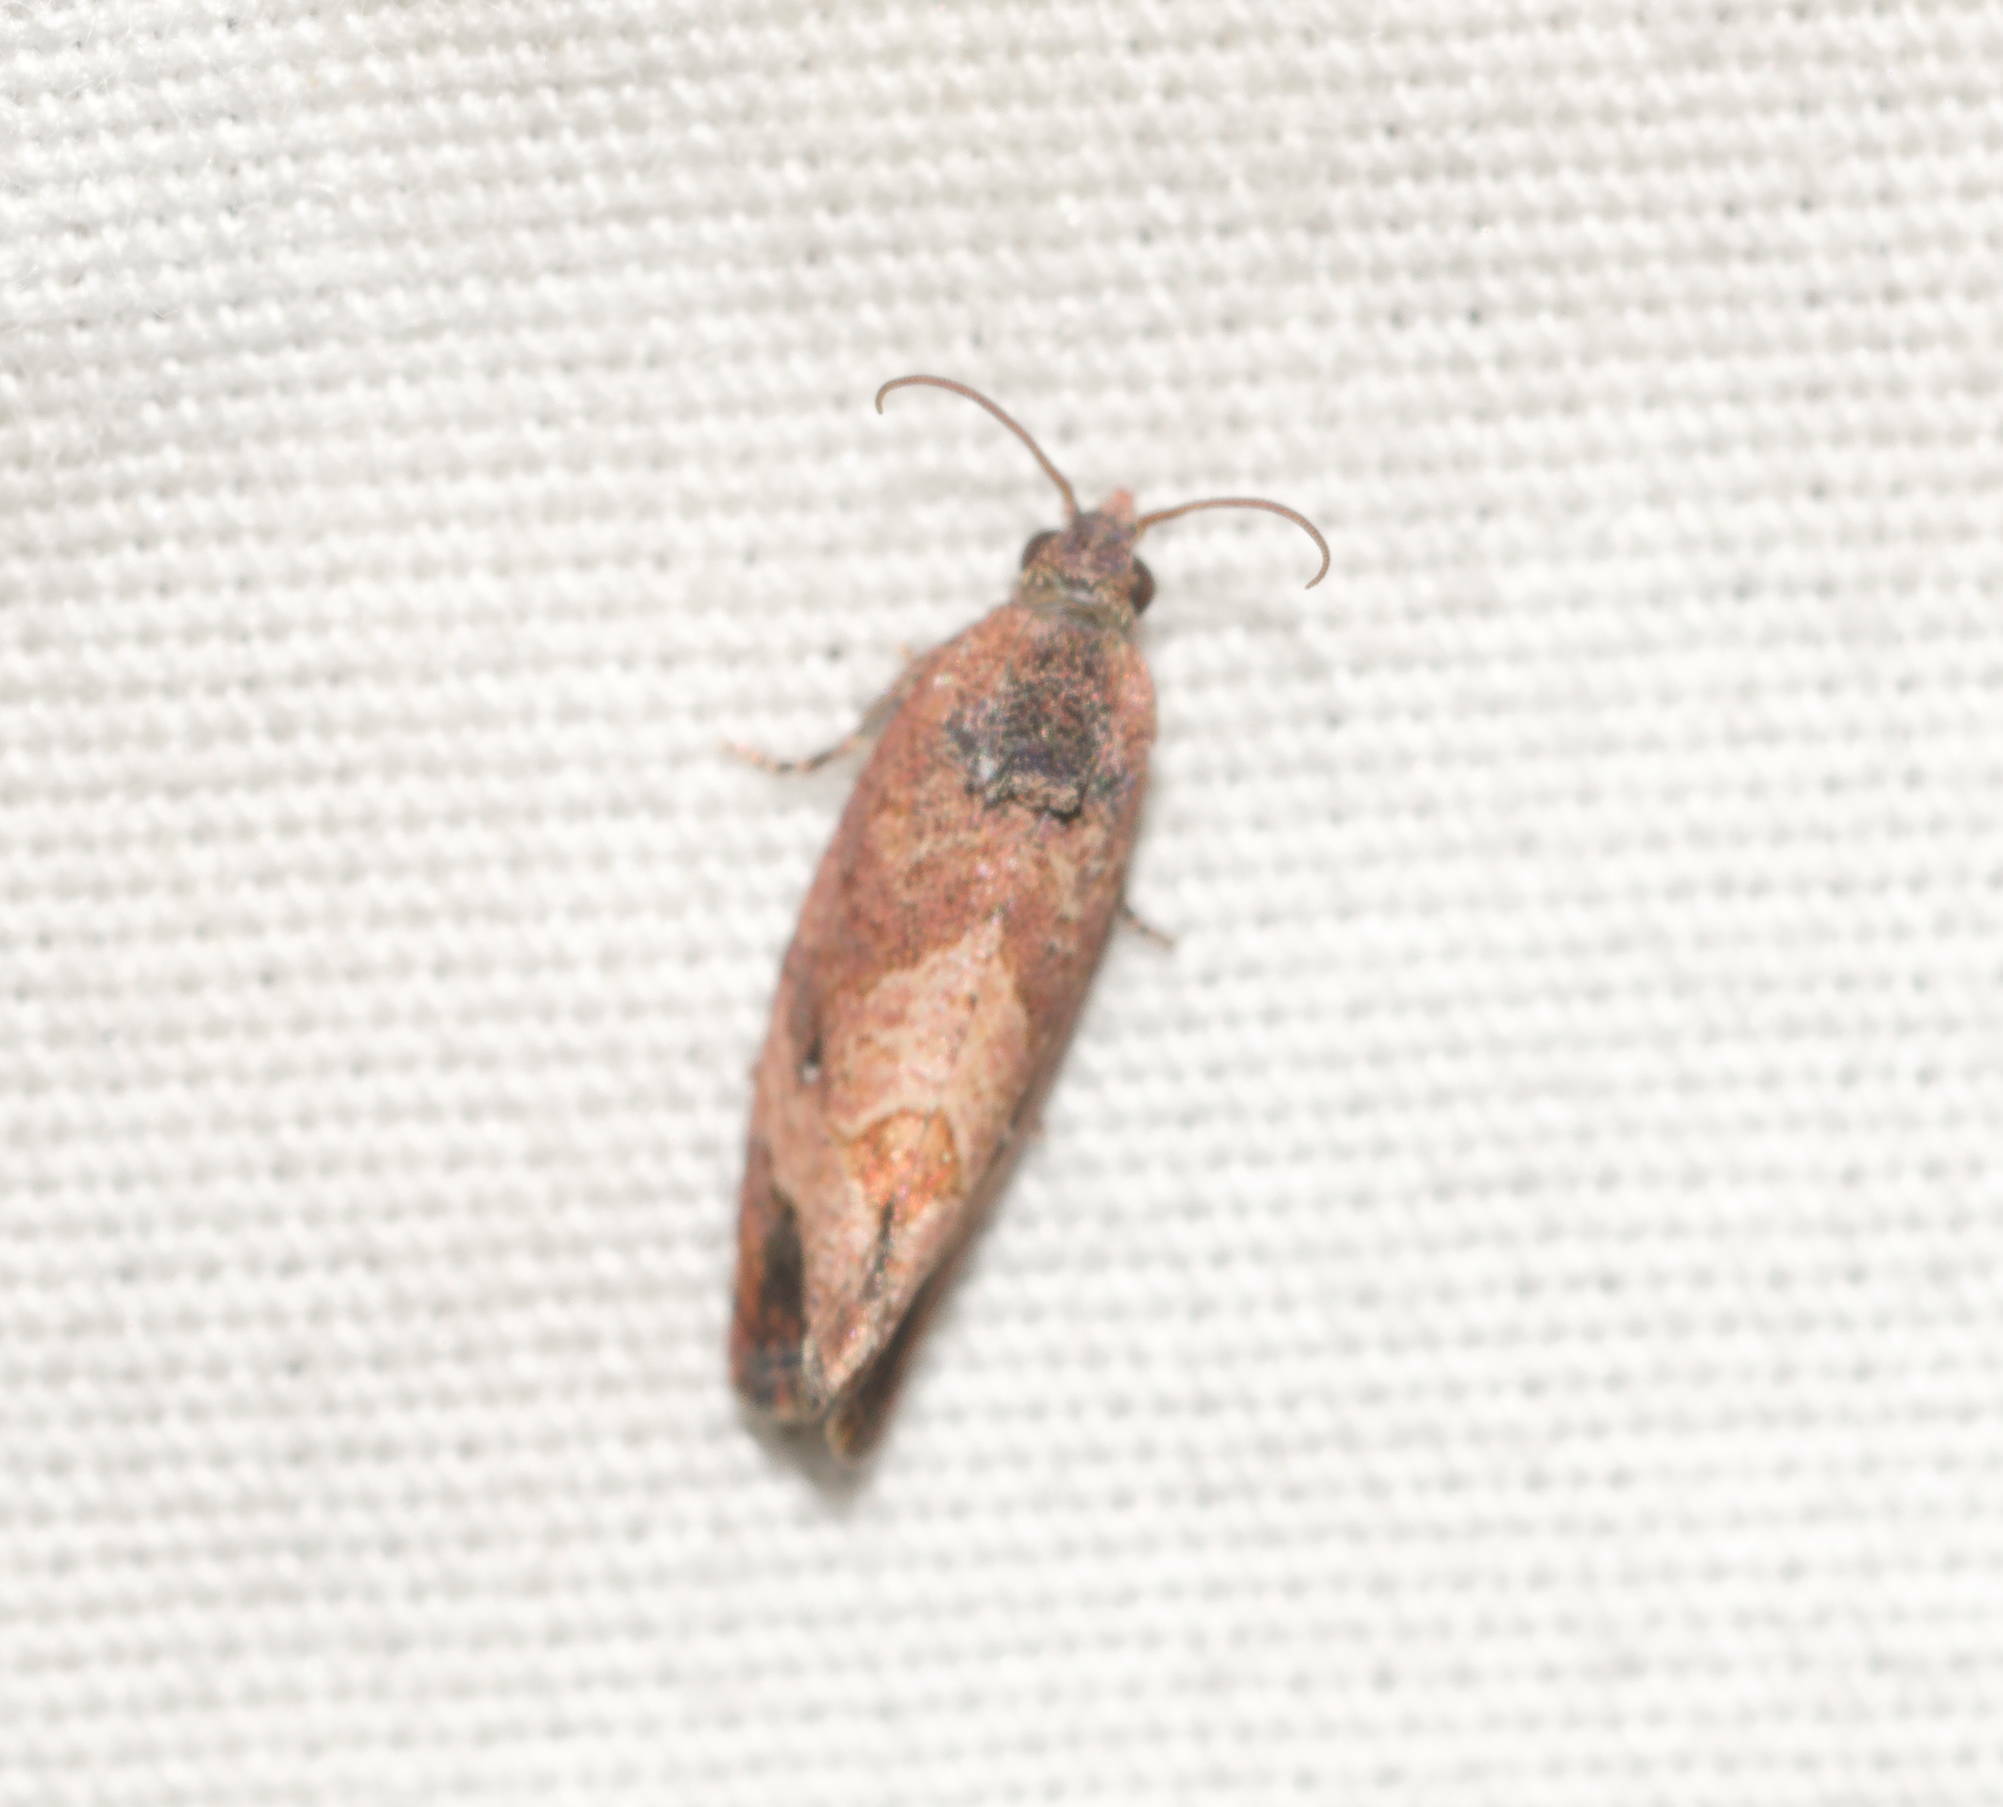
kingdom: Animalia
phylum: Arthropoda
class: Insecta
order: Lepidoptera
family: Tortricidae
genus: Cryptophlebia
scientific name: Cryptophlebia illepida
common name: Moth
